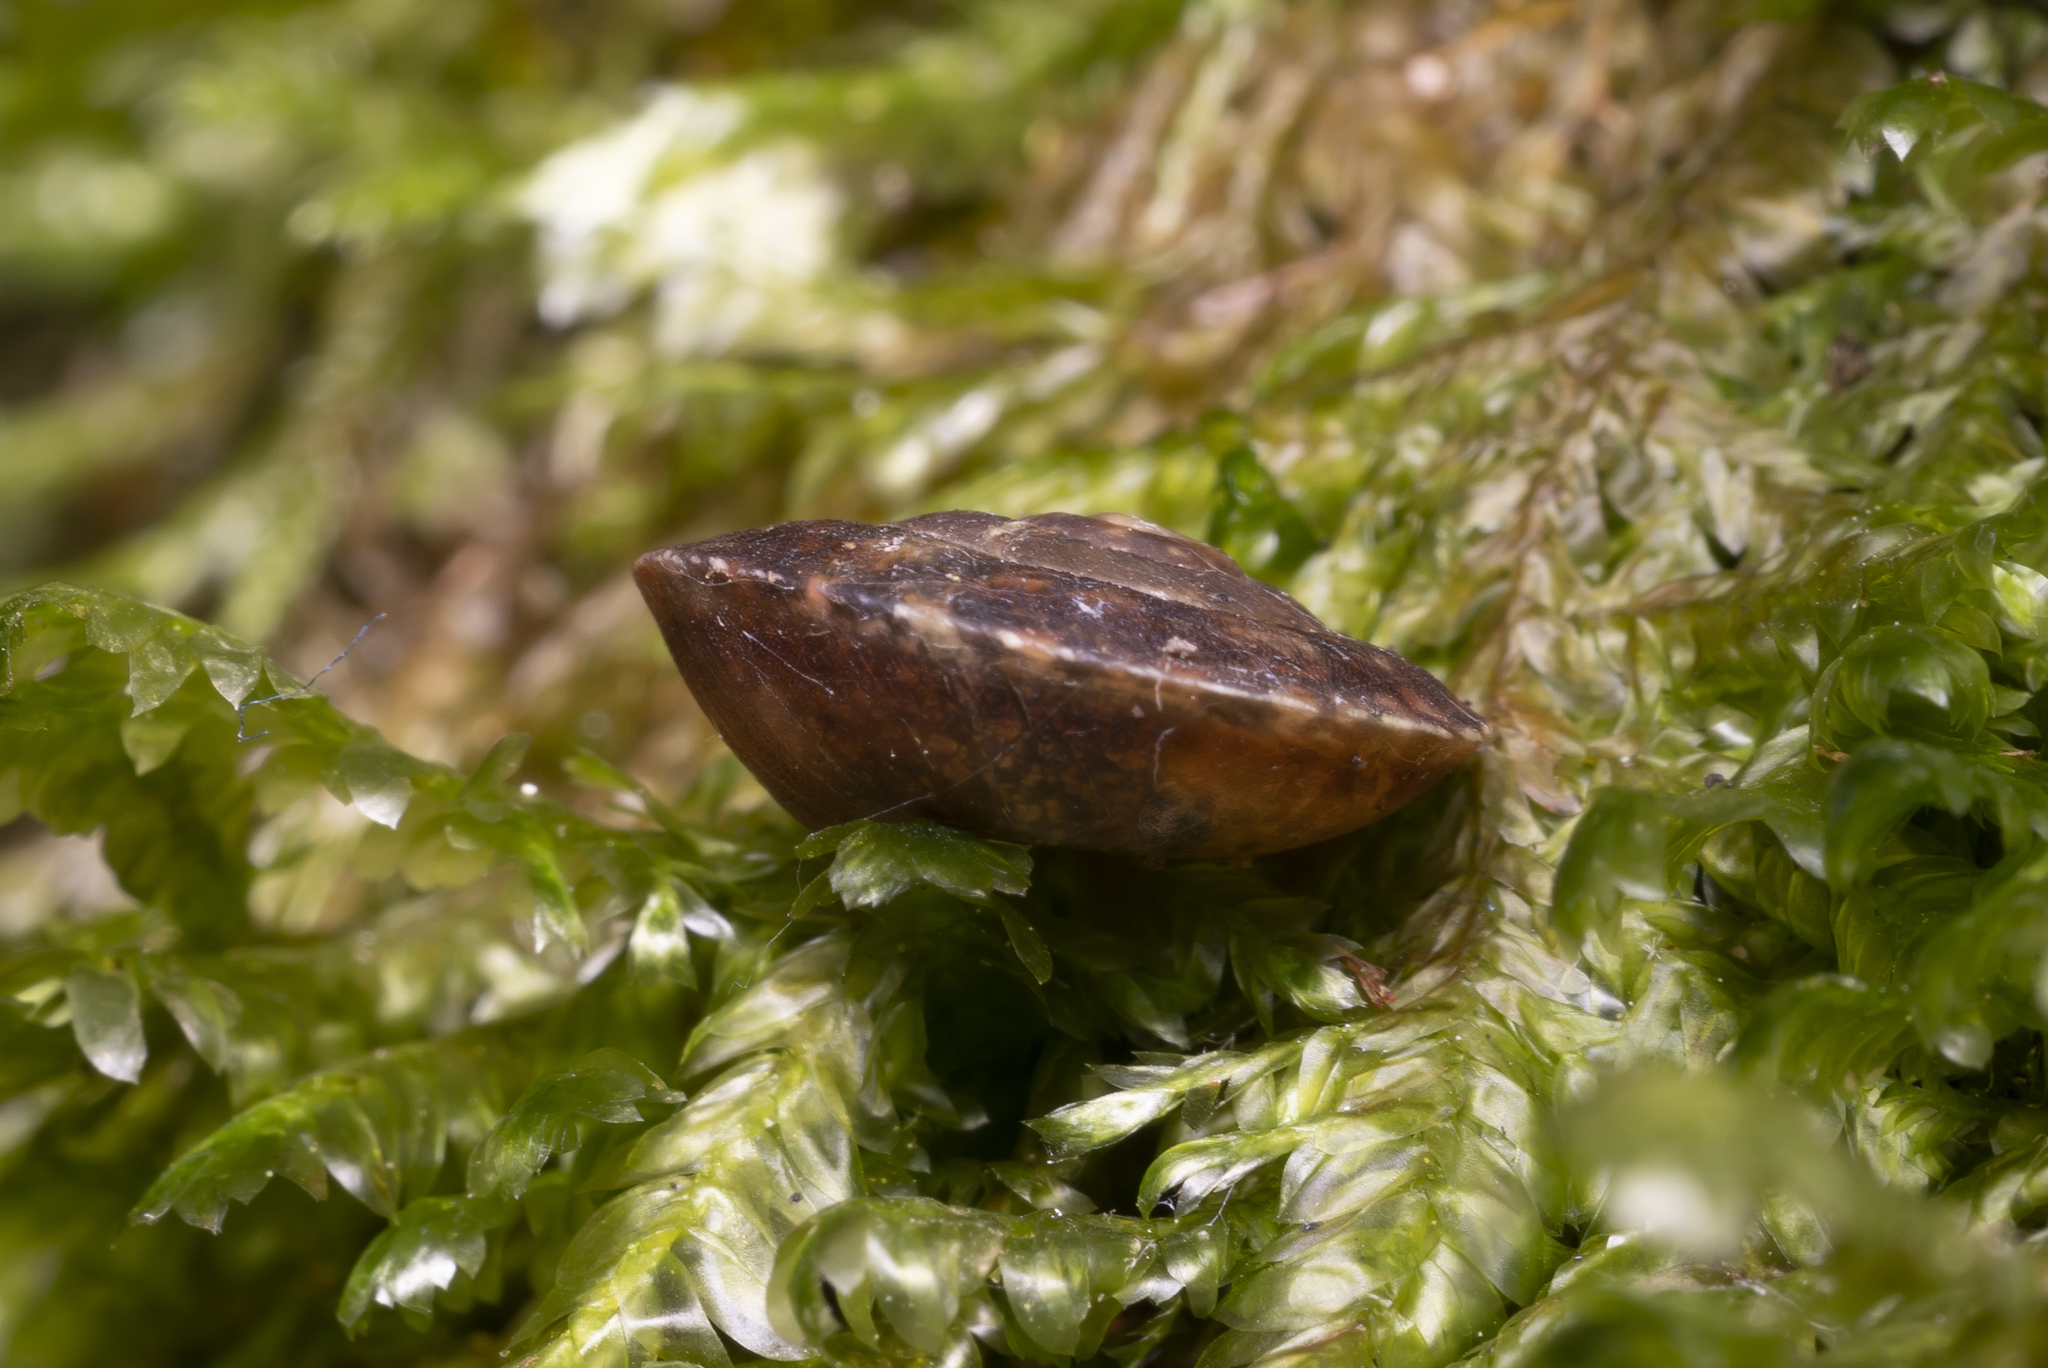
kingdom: Animalia
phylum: Mollusca
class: Gastropoda
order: Stylommatophora
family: Helicidae
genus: Helicigona
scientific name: Helicigona lapicida
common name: Lapidary snail
